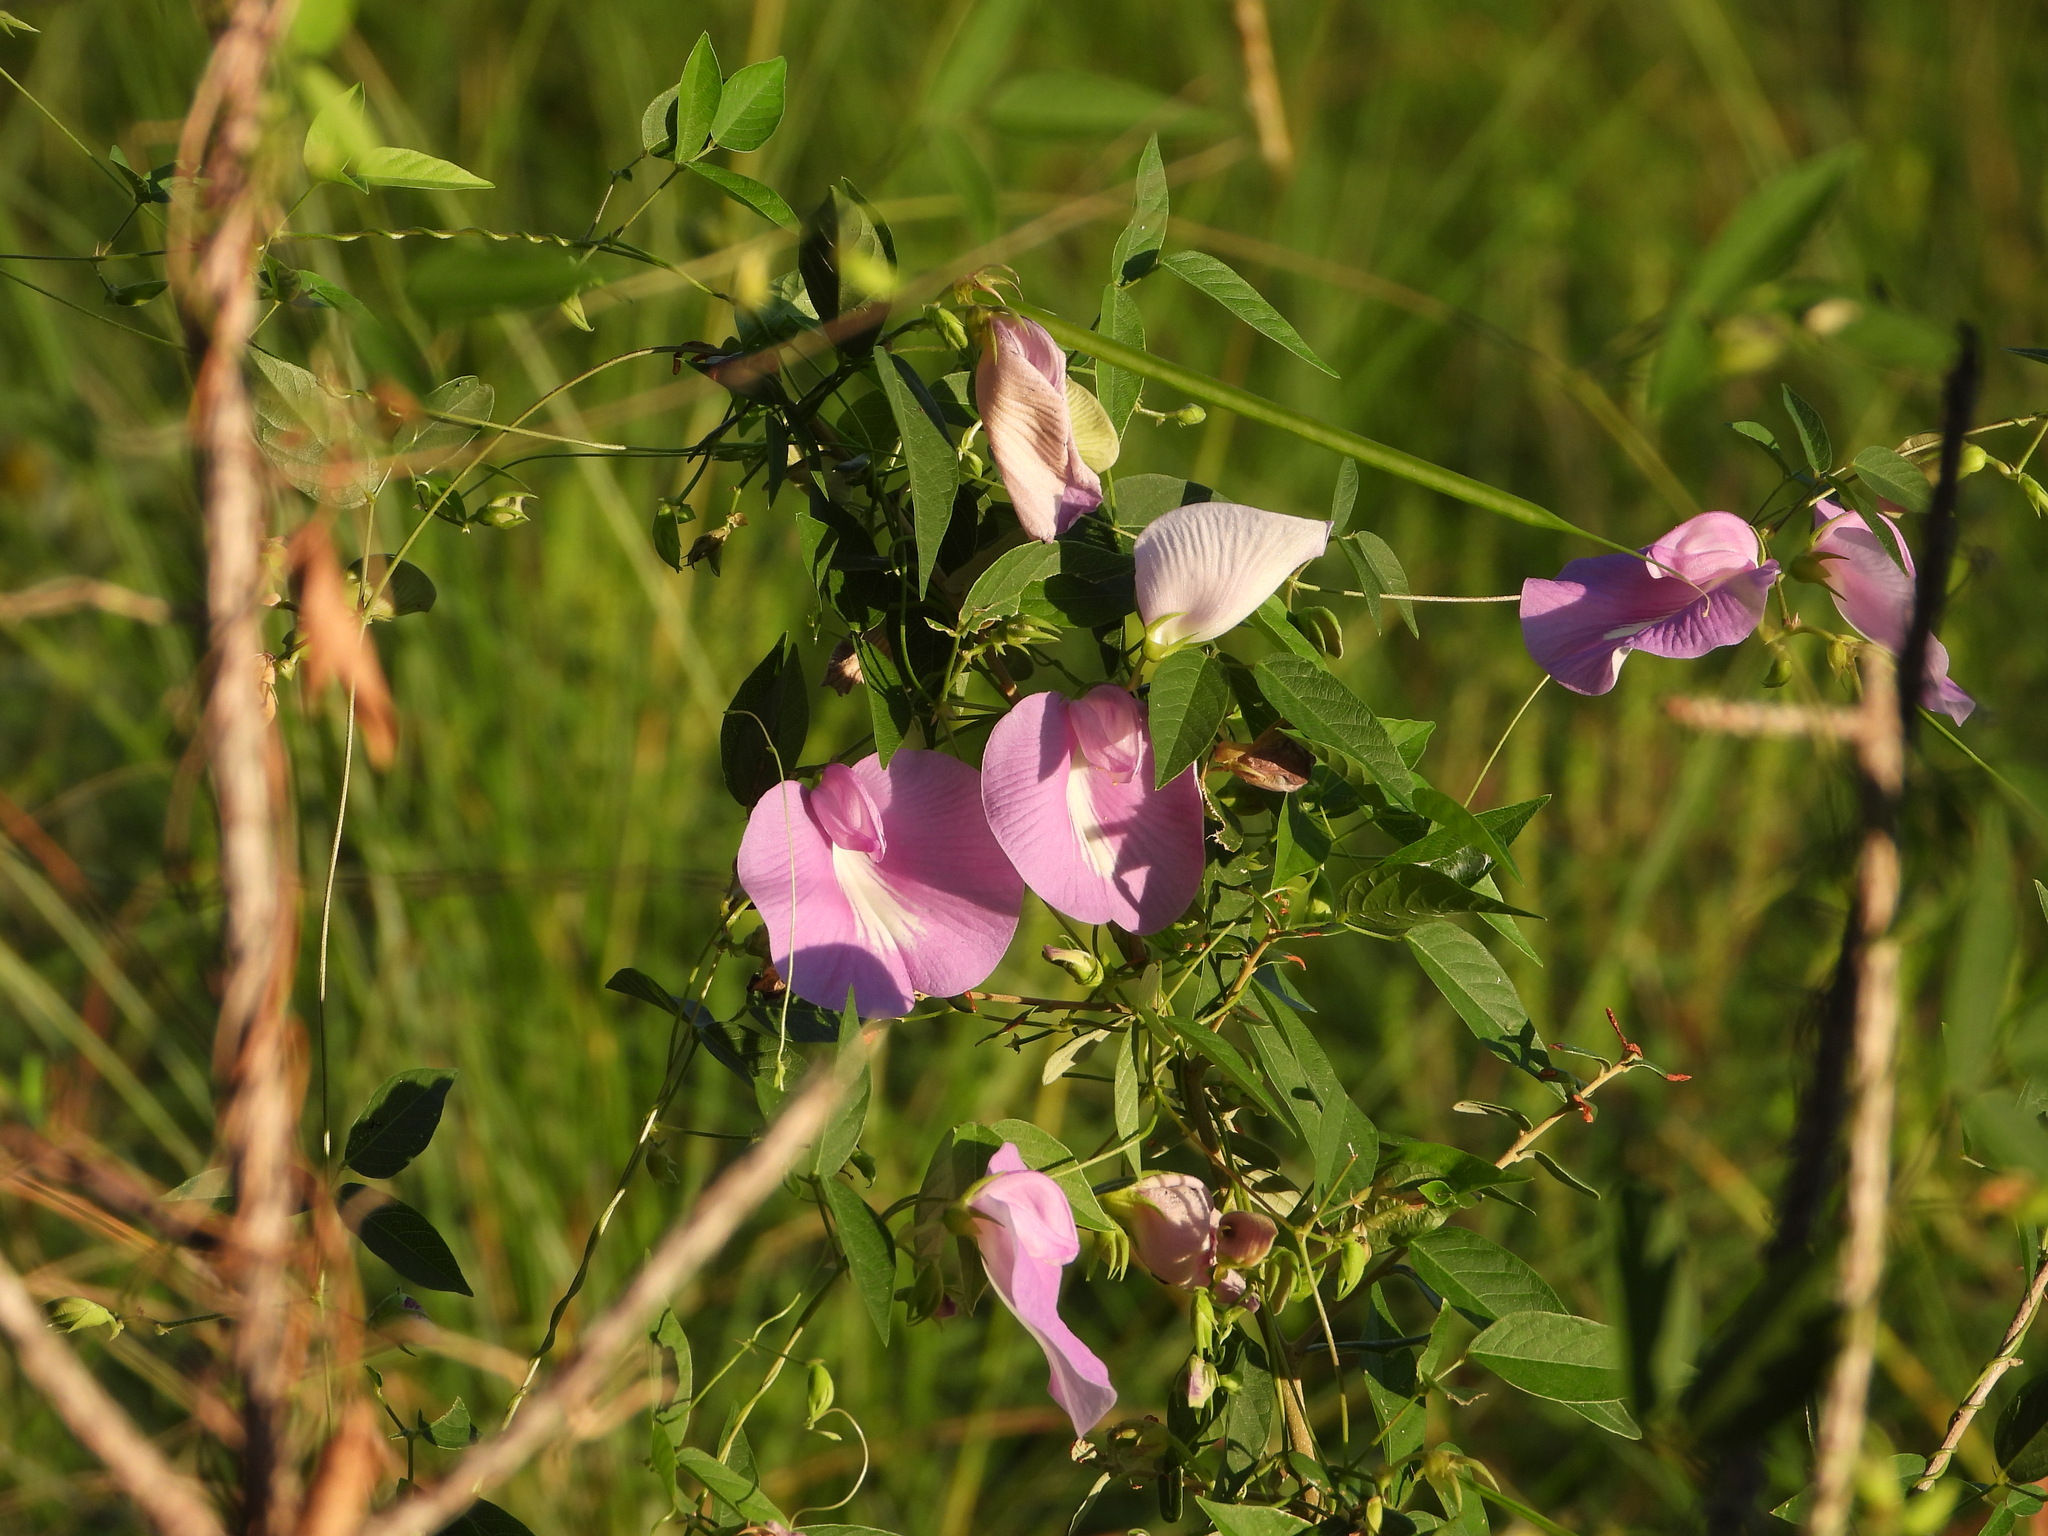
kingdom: Plantae
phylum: Tracheophyta
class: Magnoliopsida
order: Fabales
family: Fabaceae
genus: Centrosema
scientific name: Centrosema virginianum
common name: Butterfly-pea
